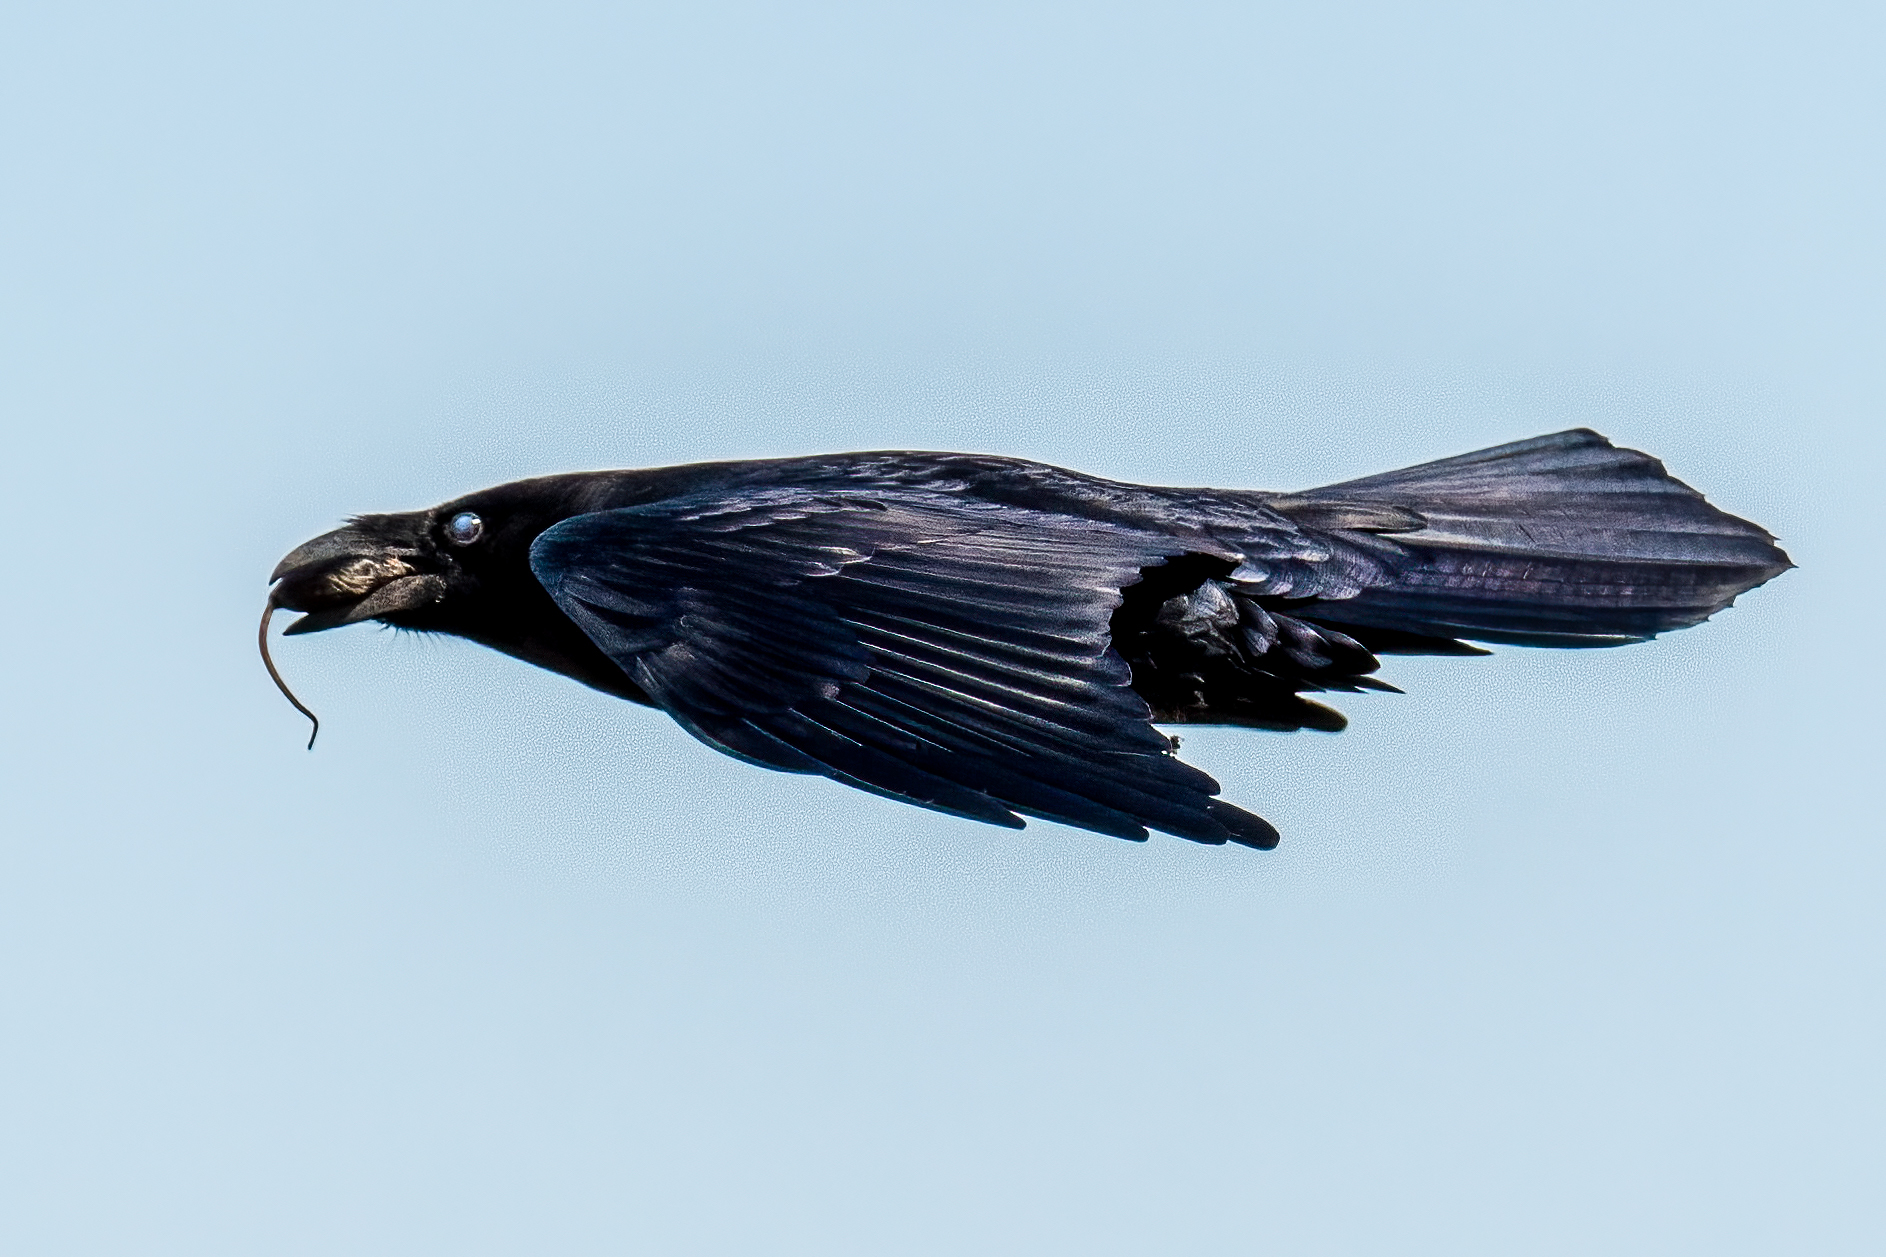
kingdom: Animalia
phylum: Chordata
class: Aves
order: Passeriformes
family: Corvidae
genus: Corvus
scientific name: Corvus corax
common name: Common raven
